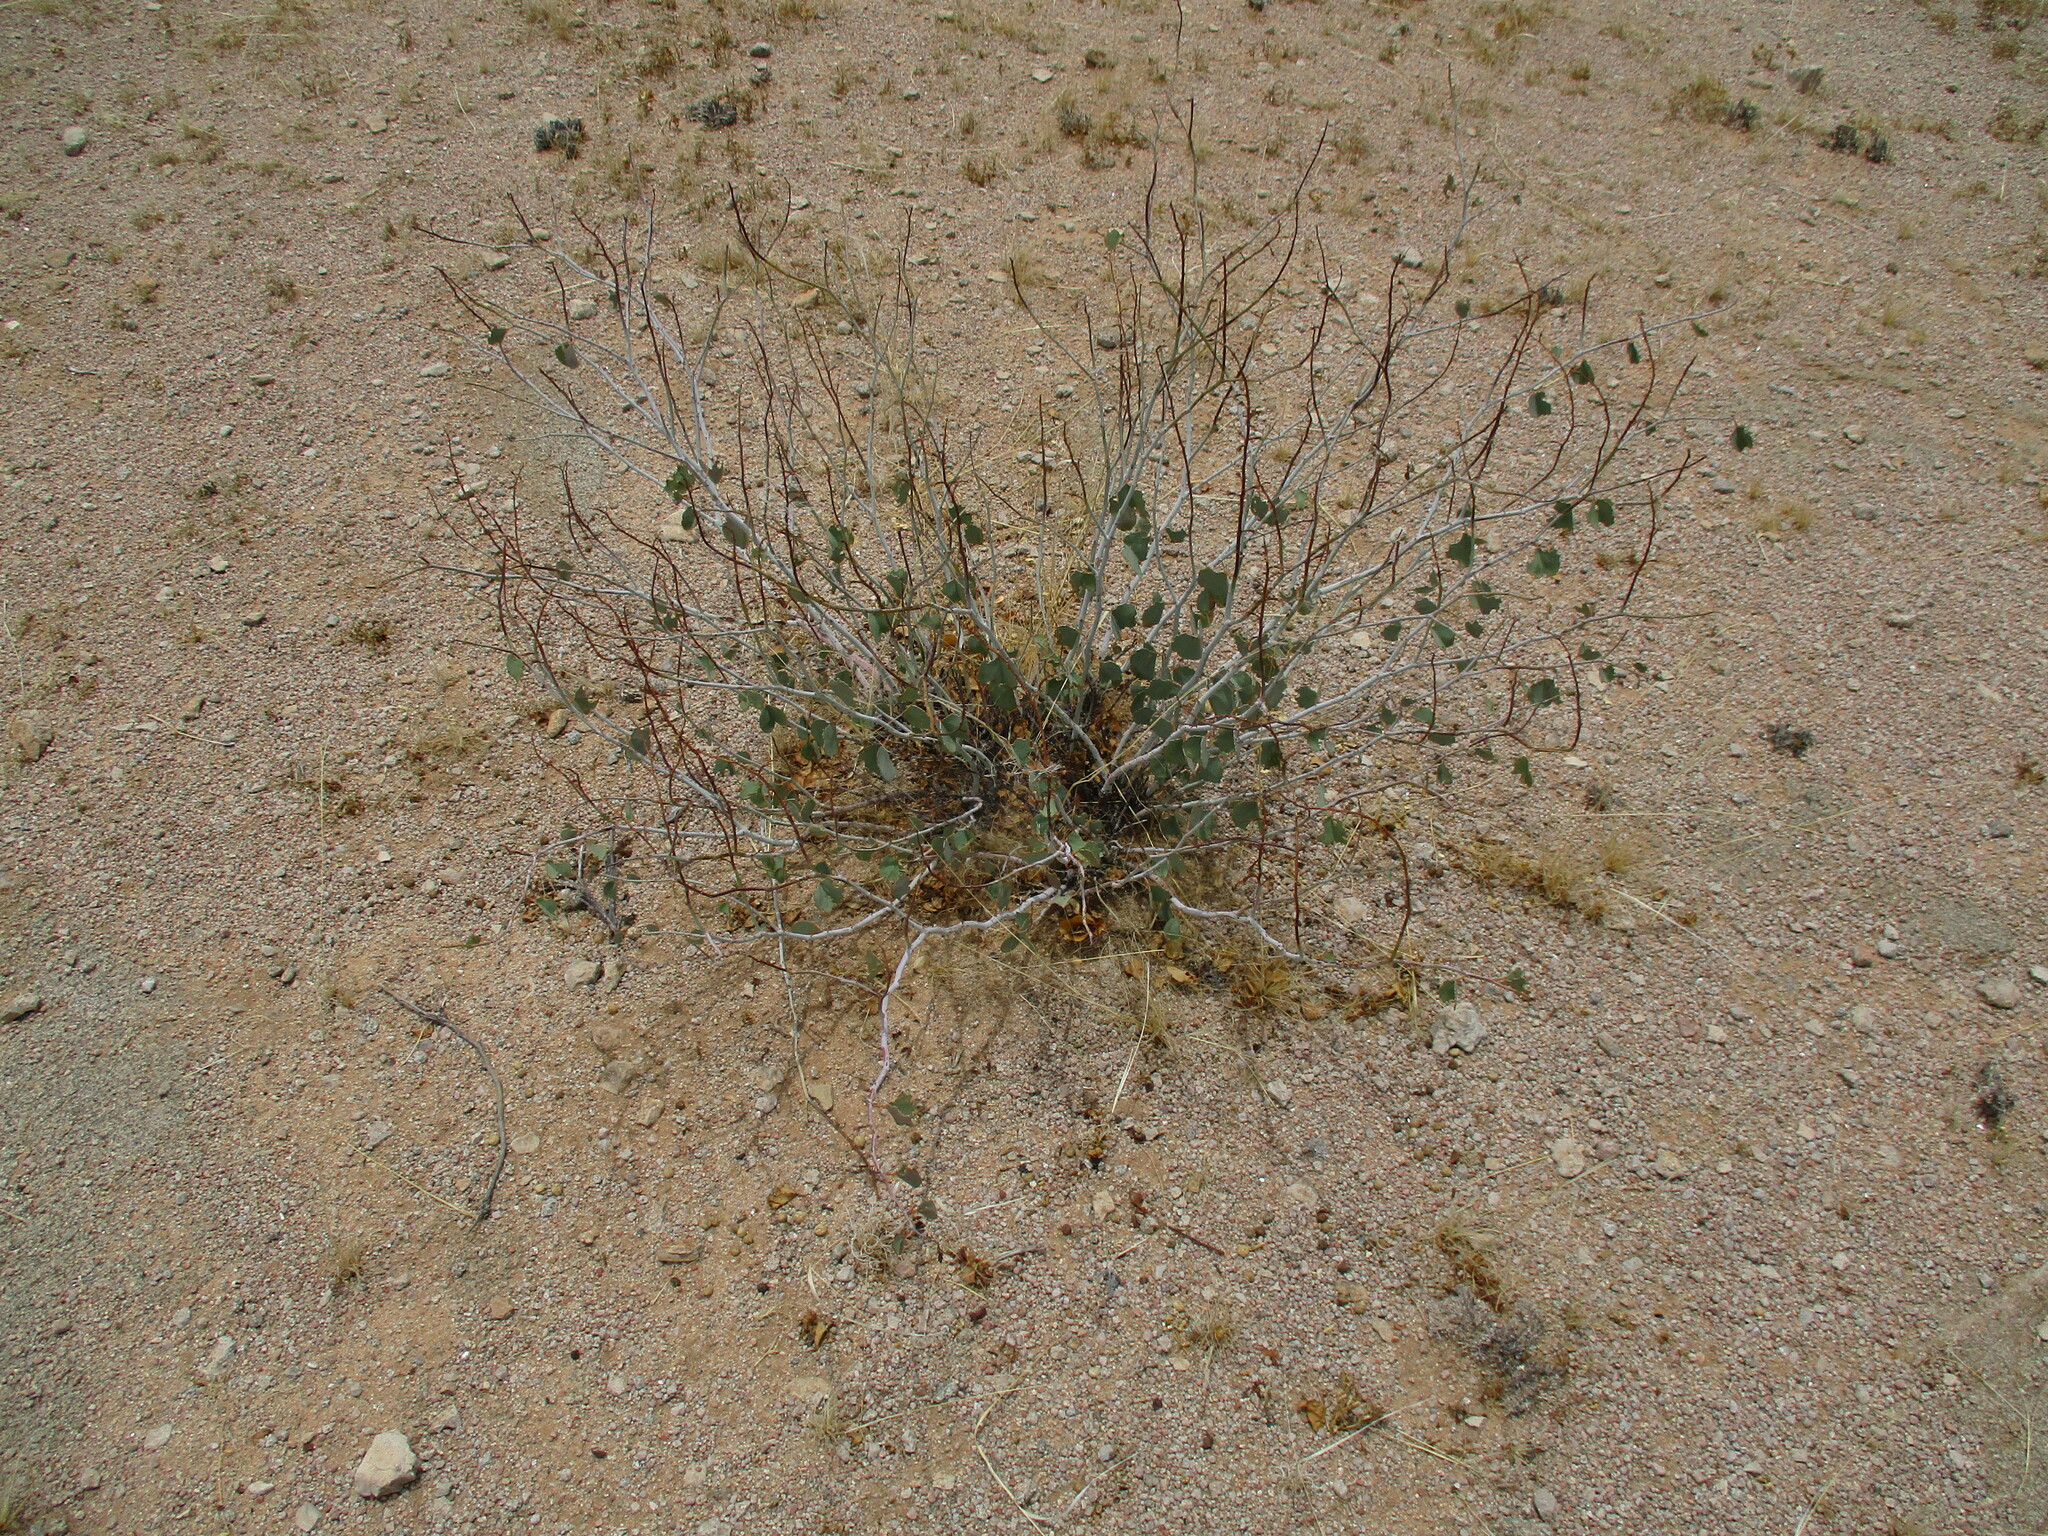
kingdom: Plantae
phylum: Tracheophyta
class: Magnoliopsida
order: Fabales
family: Fabaceae
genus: Adenolobus
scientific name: Adenolobus pechuelii
